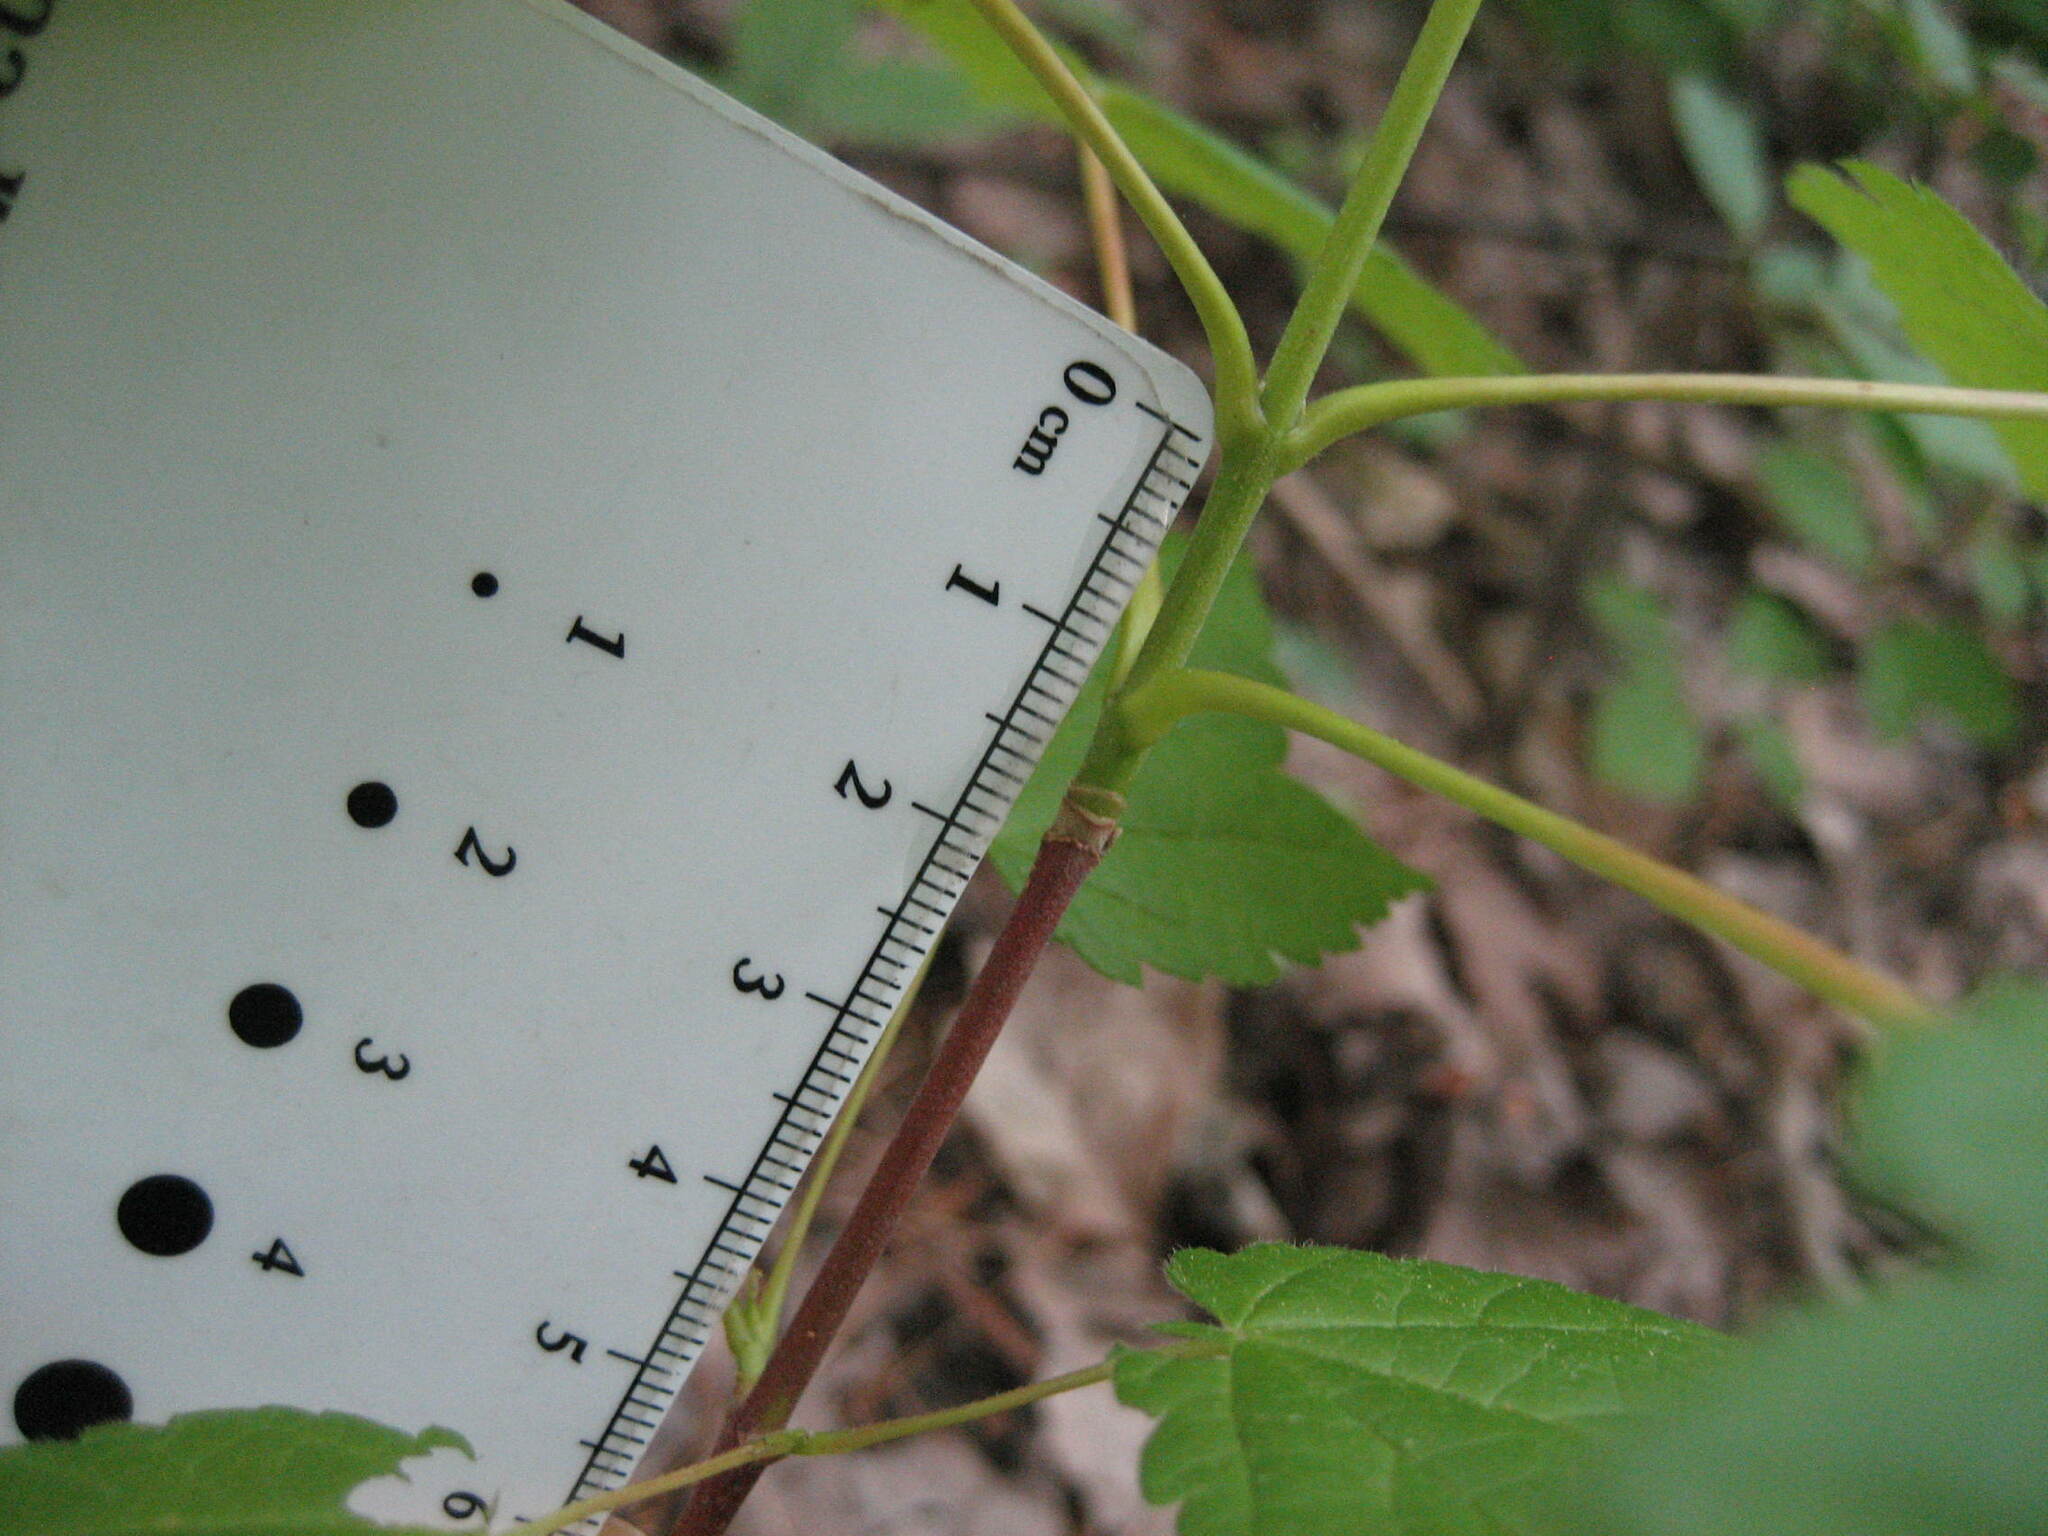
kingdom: Plantae
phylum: Tracheophyta
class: Magnoliopsida
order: Sapindales
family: Sapindaceae
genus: Acer
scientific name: Acer spicatum
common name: Mountain maple
